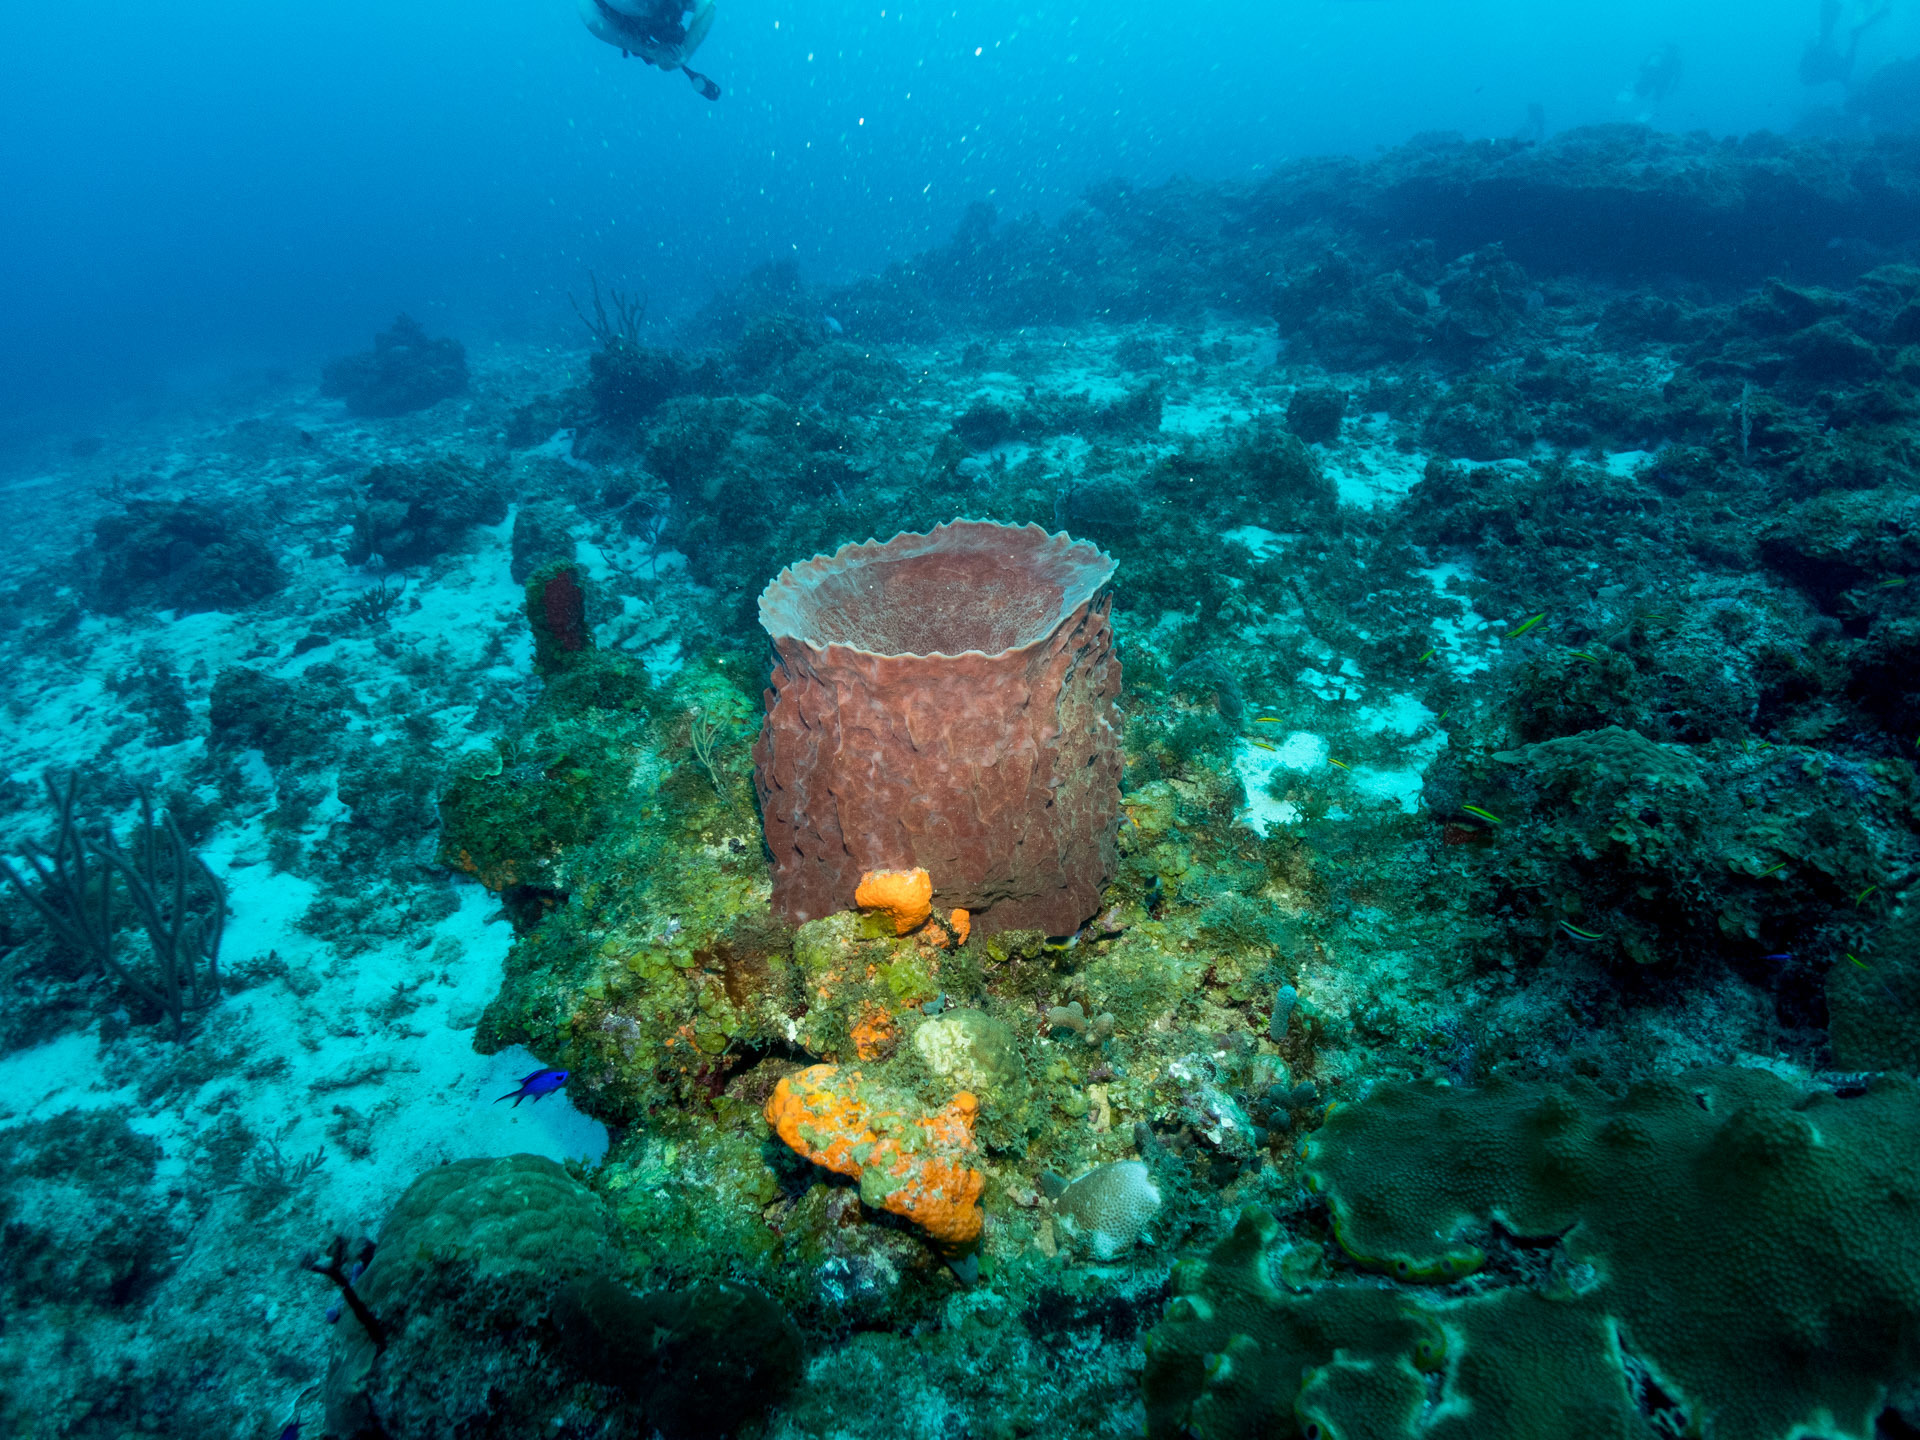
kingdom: Animalia
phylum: Porifera
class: Demospongiae
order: Haplosclerida
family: Petrosiidae
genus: Xestospongia
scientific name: Xestospongia muta
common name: Giant barrel sponge
